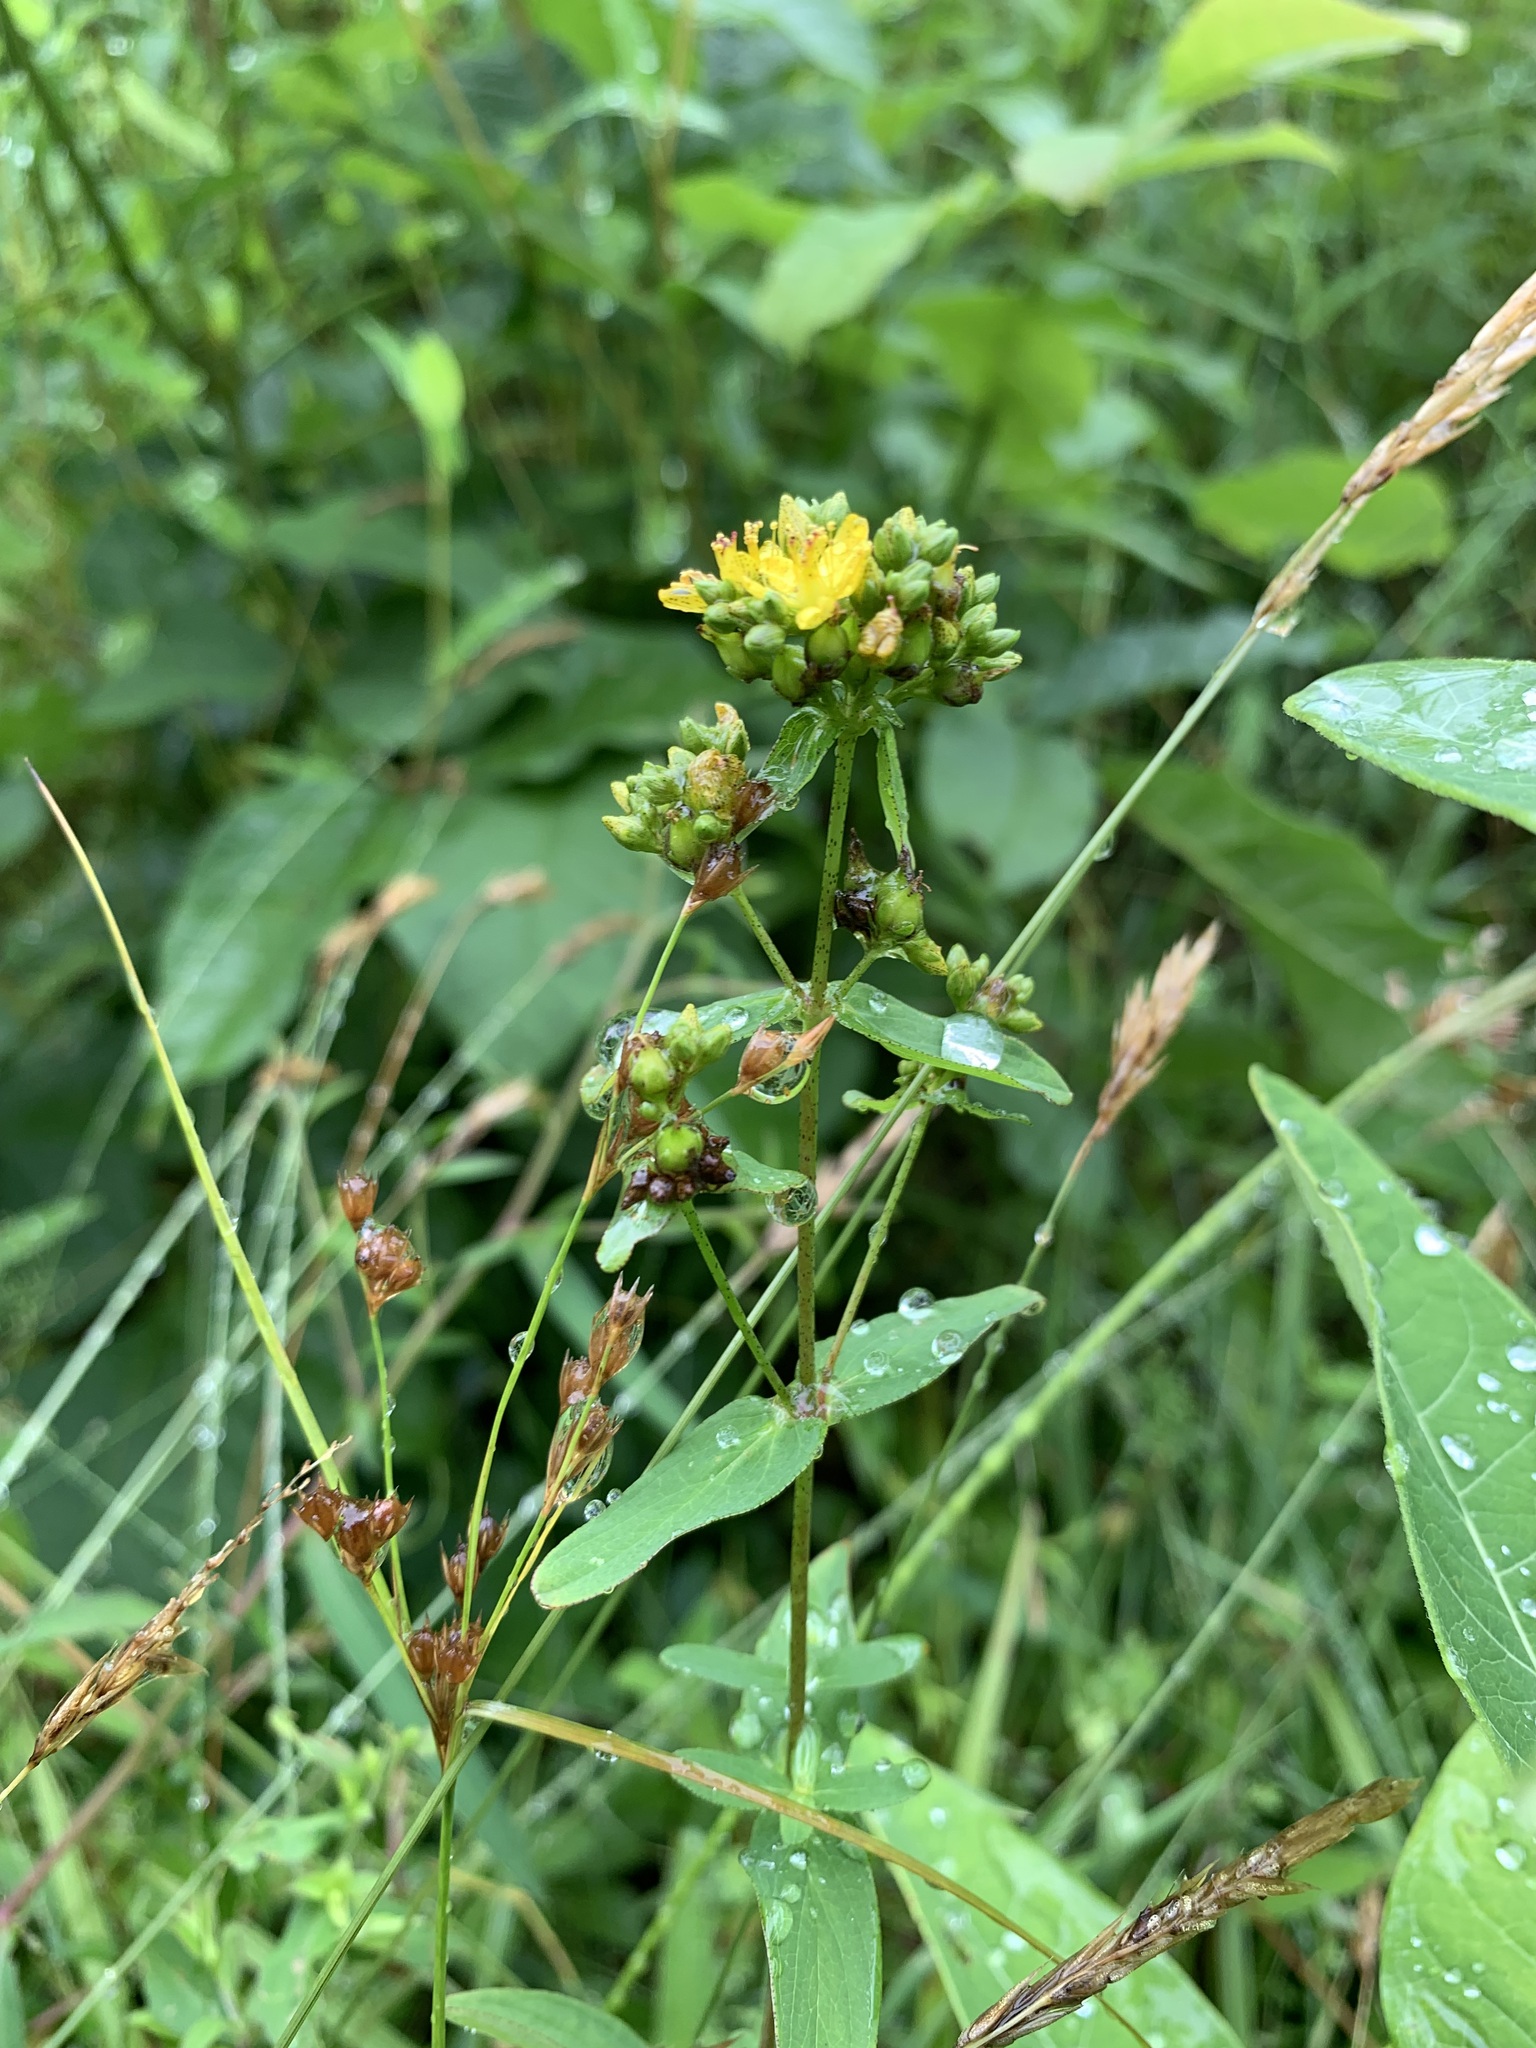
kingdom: Plantae
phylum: Tracheophyta
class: Magnoliopsida
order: Malpighiales
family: Hypericaceae
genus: Hypericum
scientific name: Hypericum punctatum
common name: Spotted st. john's-wort
